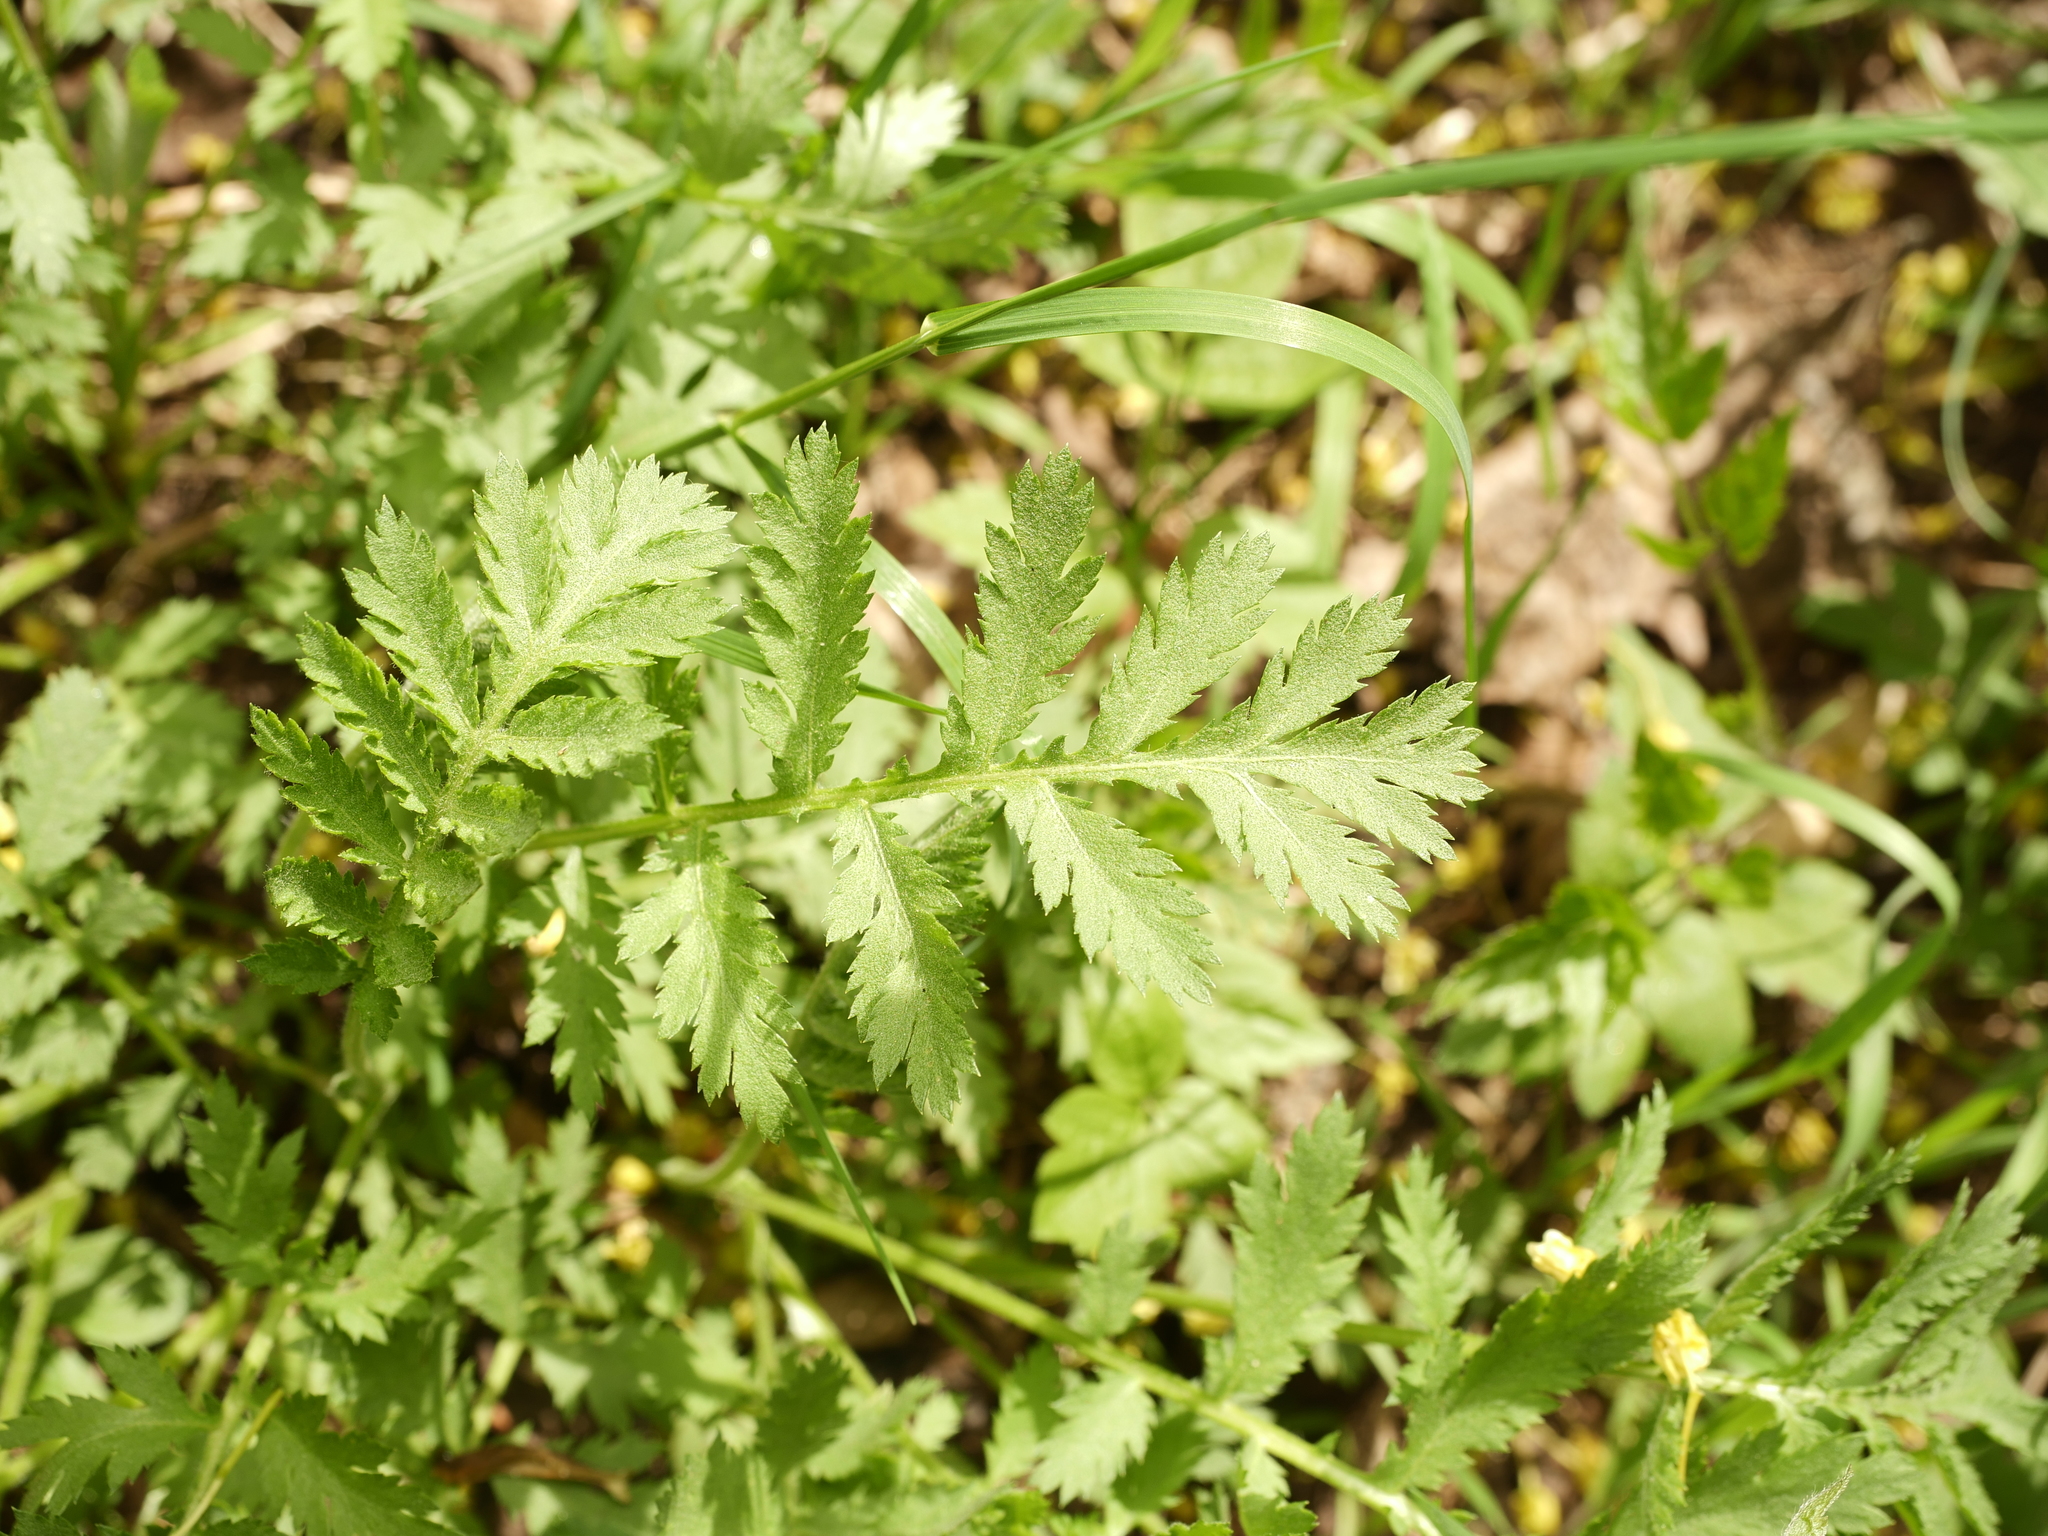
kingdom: Plantae
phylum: Tracheophyta
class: Magnoliopsida
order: Asterales
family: Asteraceae
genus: Tanacetum
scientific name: Tanacetum vulgare
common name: Common tansy
